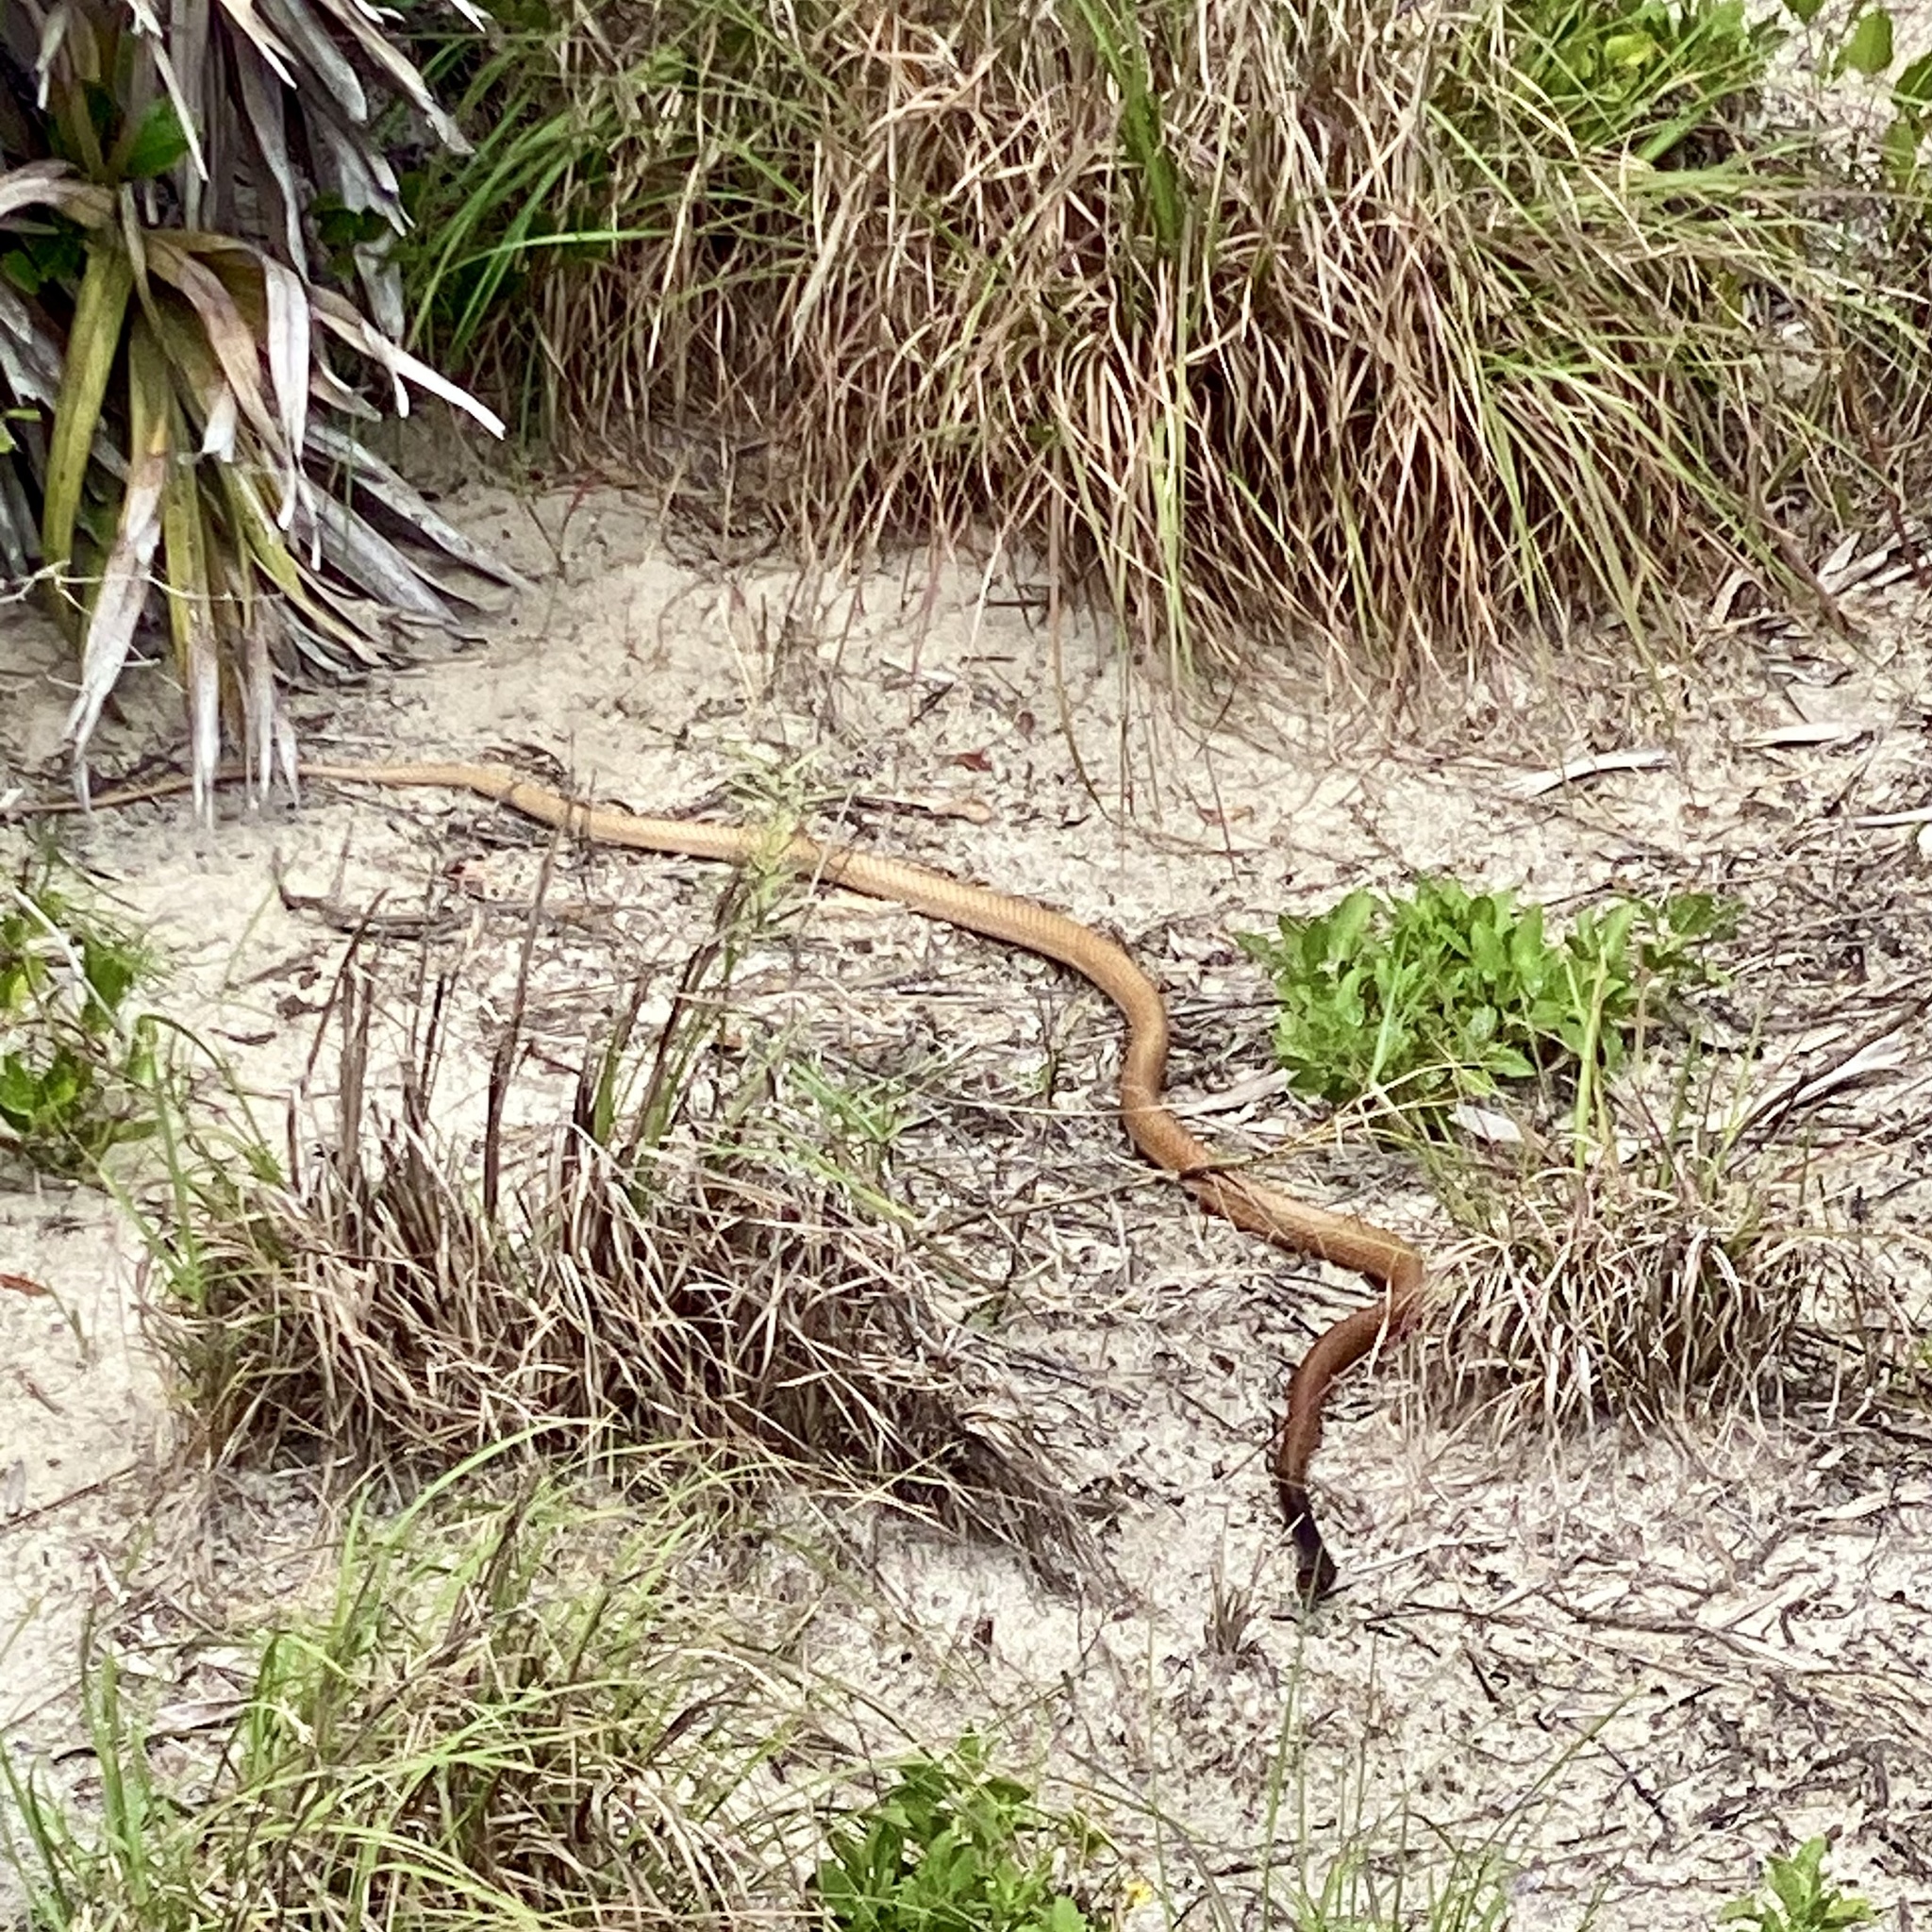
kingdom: Animalia
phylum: Chordata
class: Squamata
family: Colubridae
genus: Masticophis
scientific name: Masticophis flagellum
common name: Coachwhip
